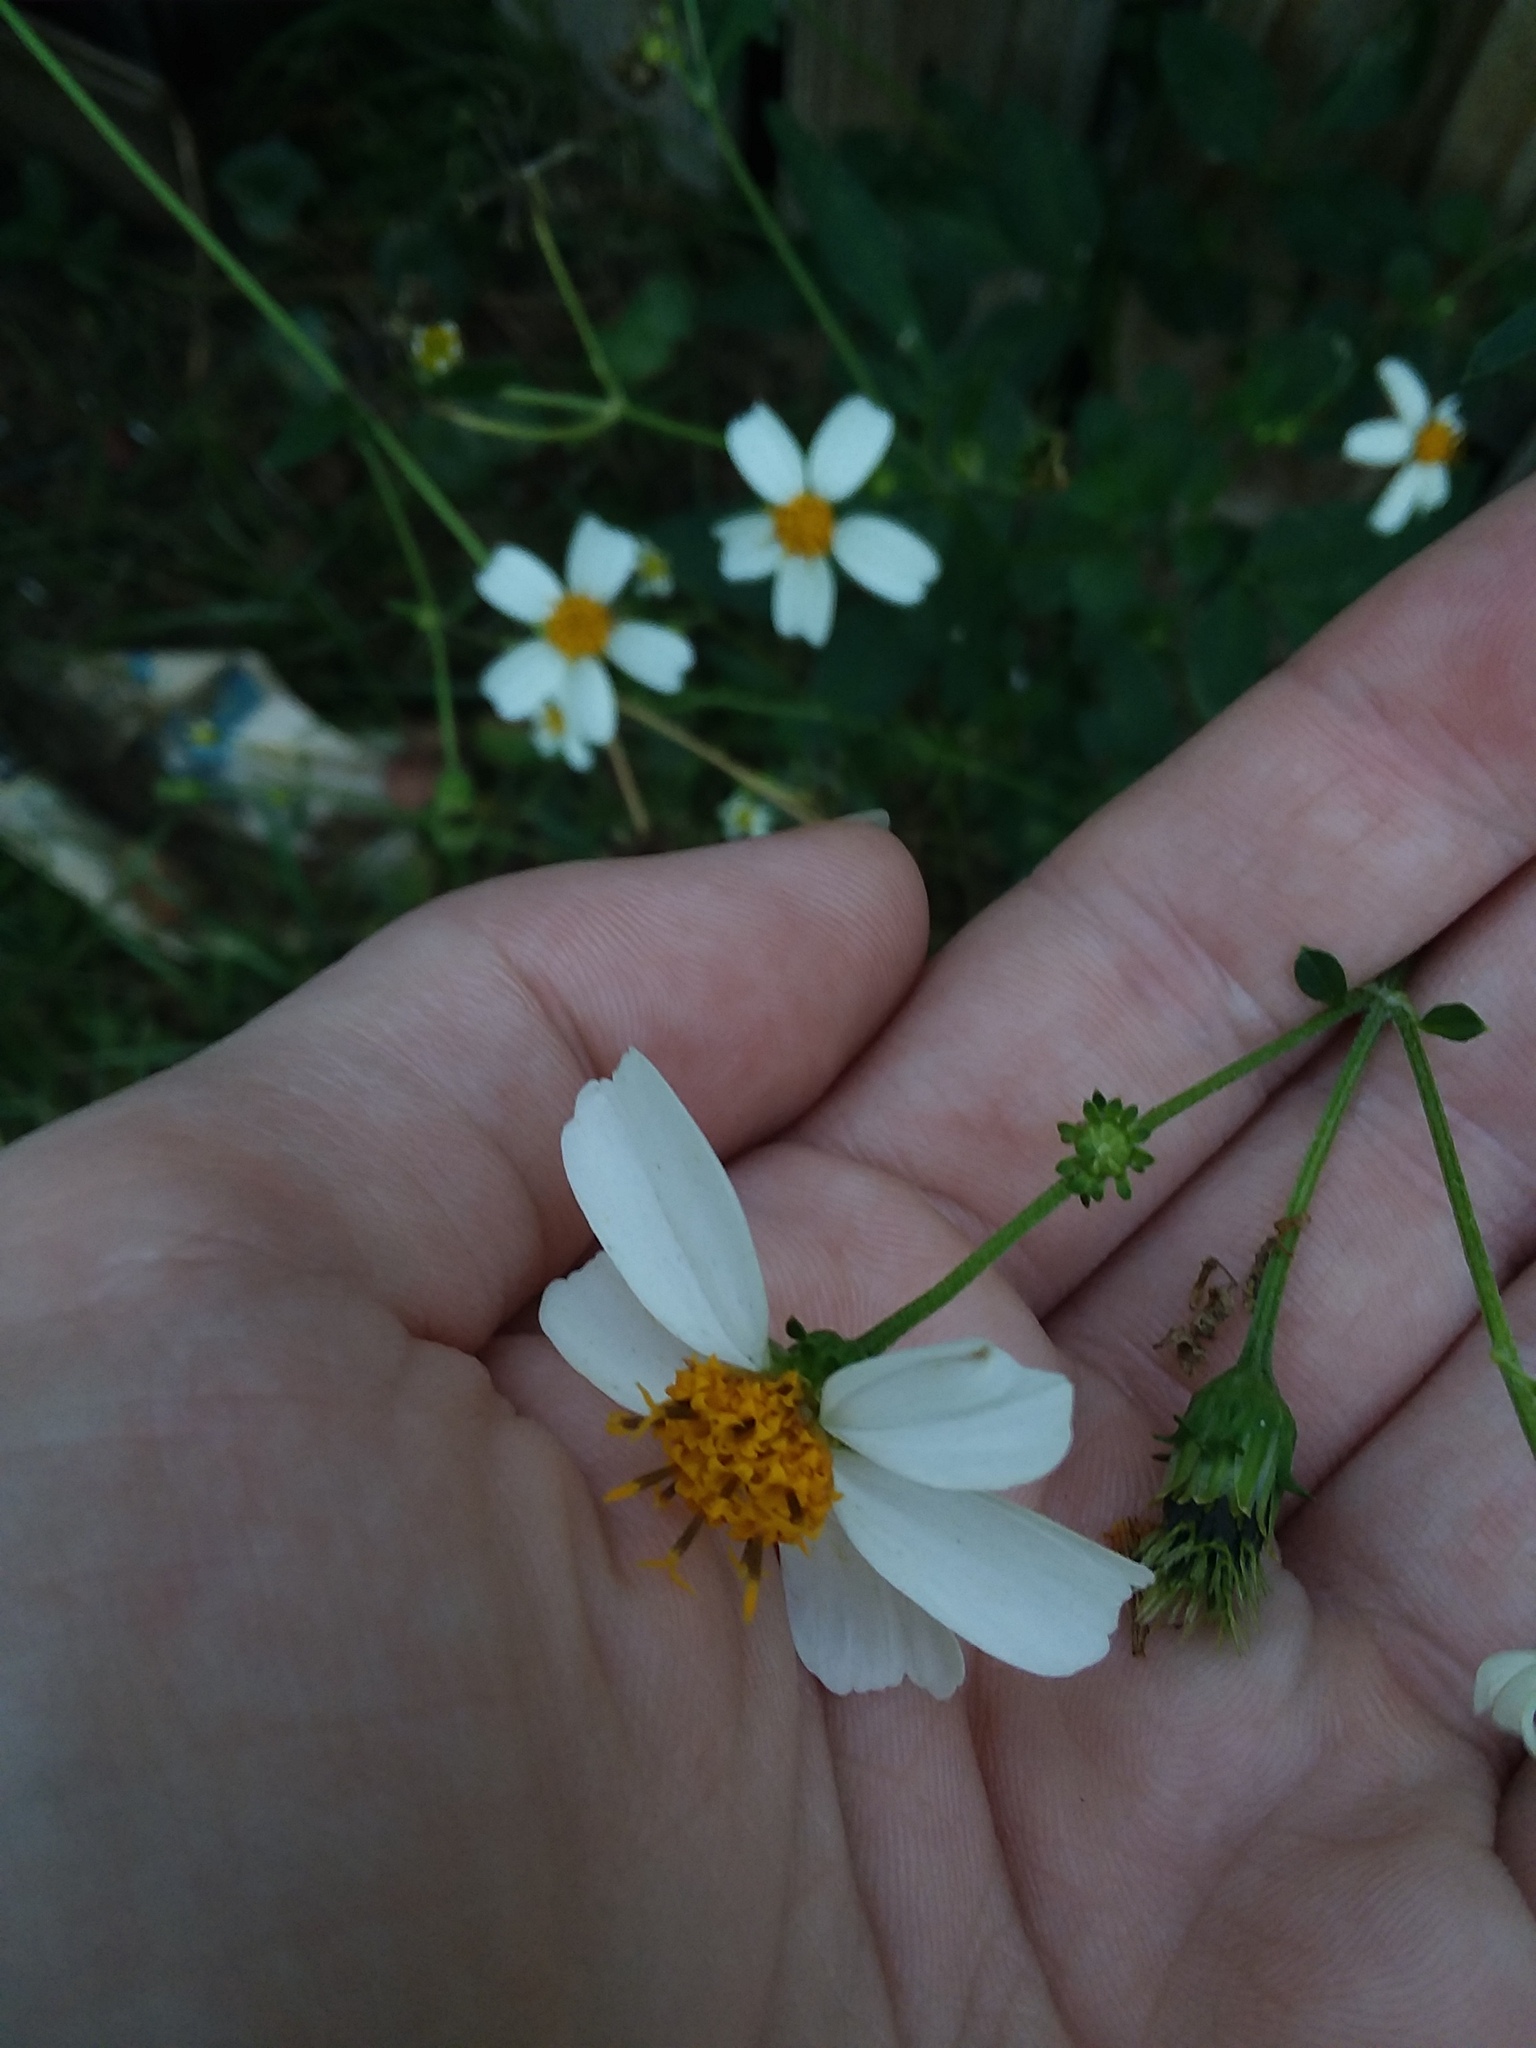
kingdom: Plantae
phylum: Tracheophyta
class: Magnoliopsida
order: Asterales
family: Asteraceae
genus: Bidens
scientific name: Bidens alba
